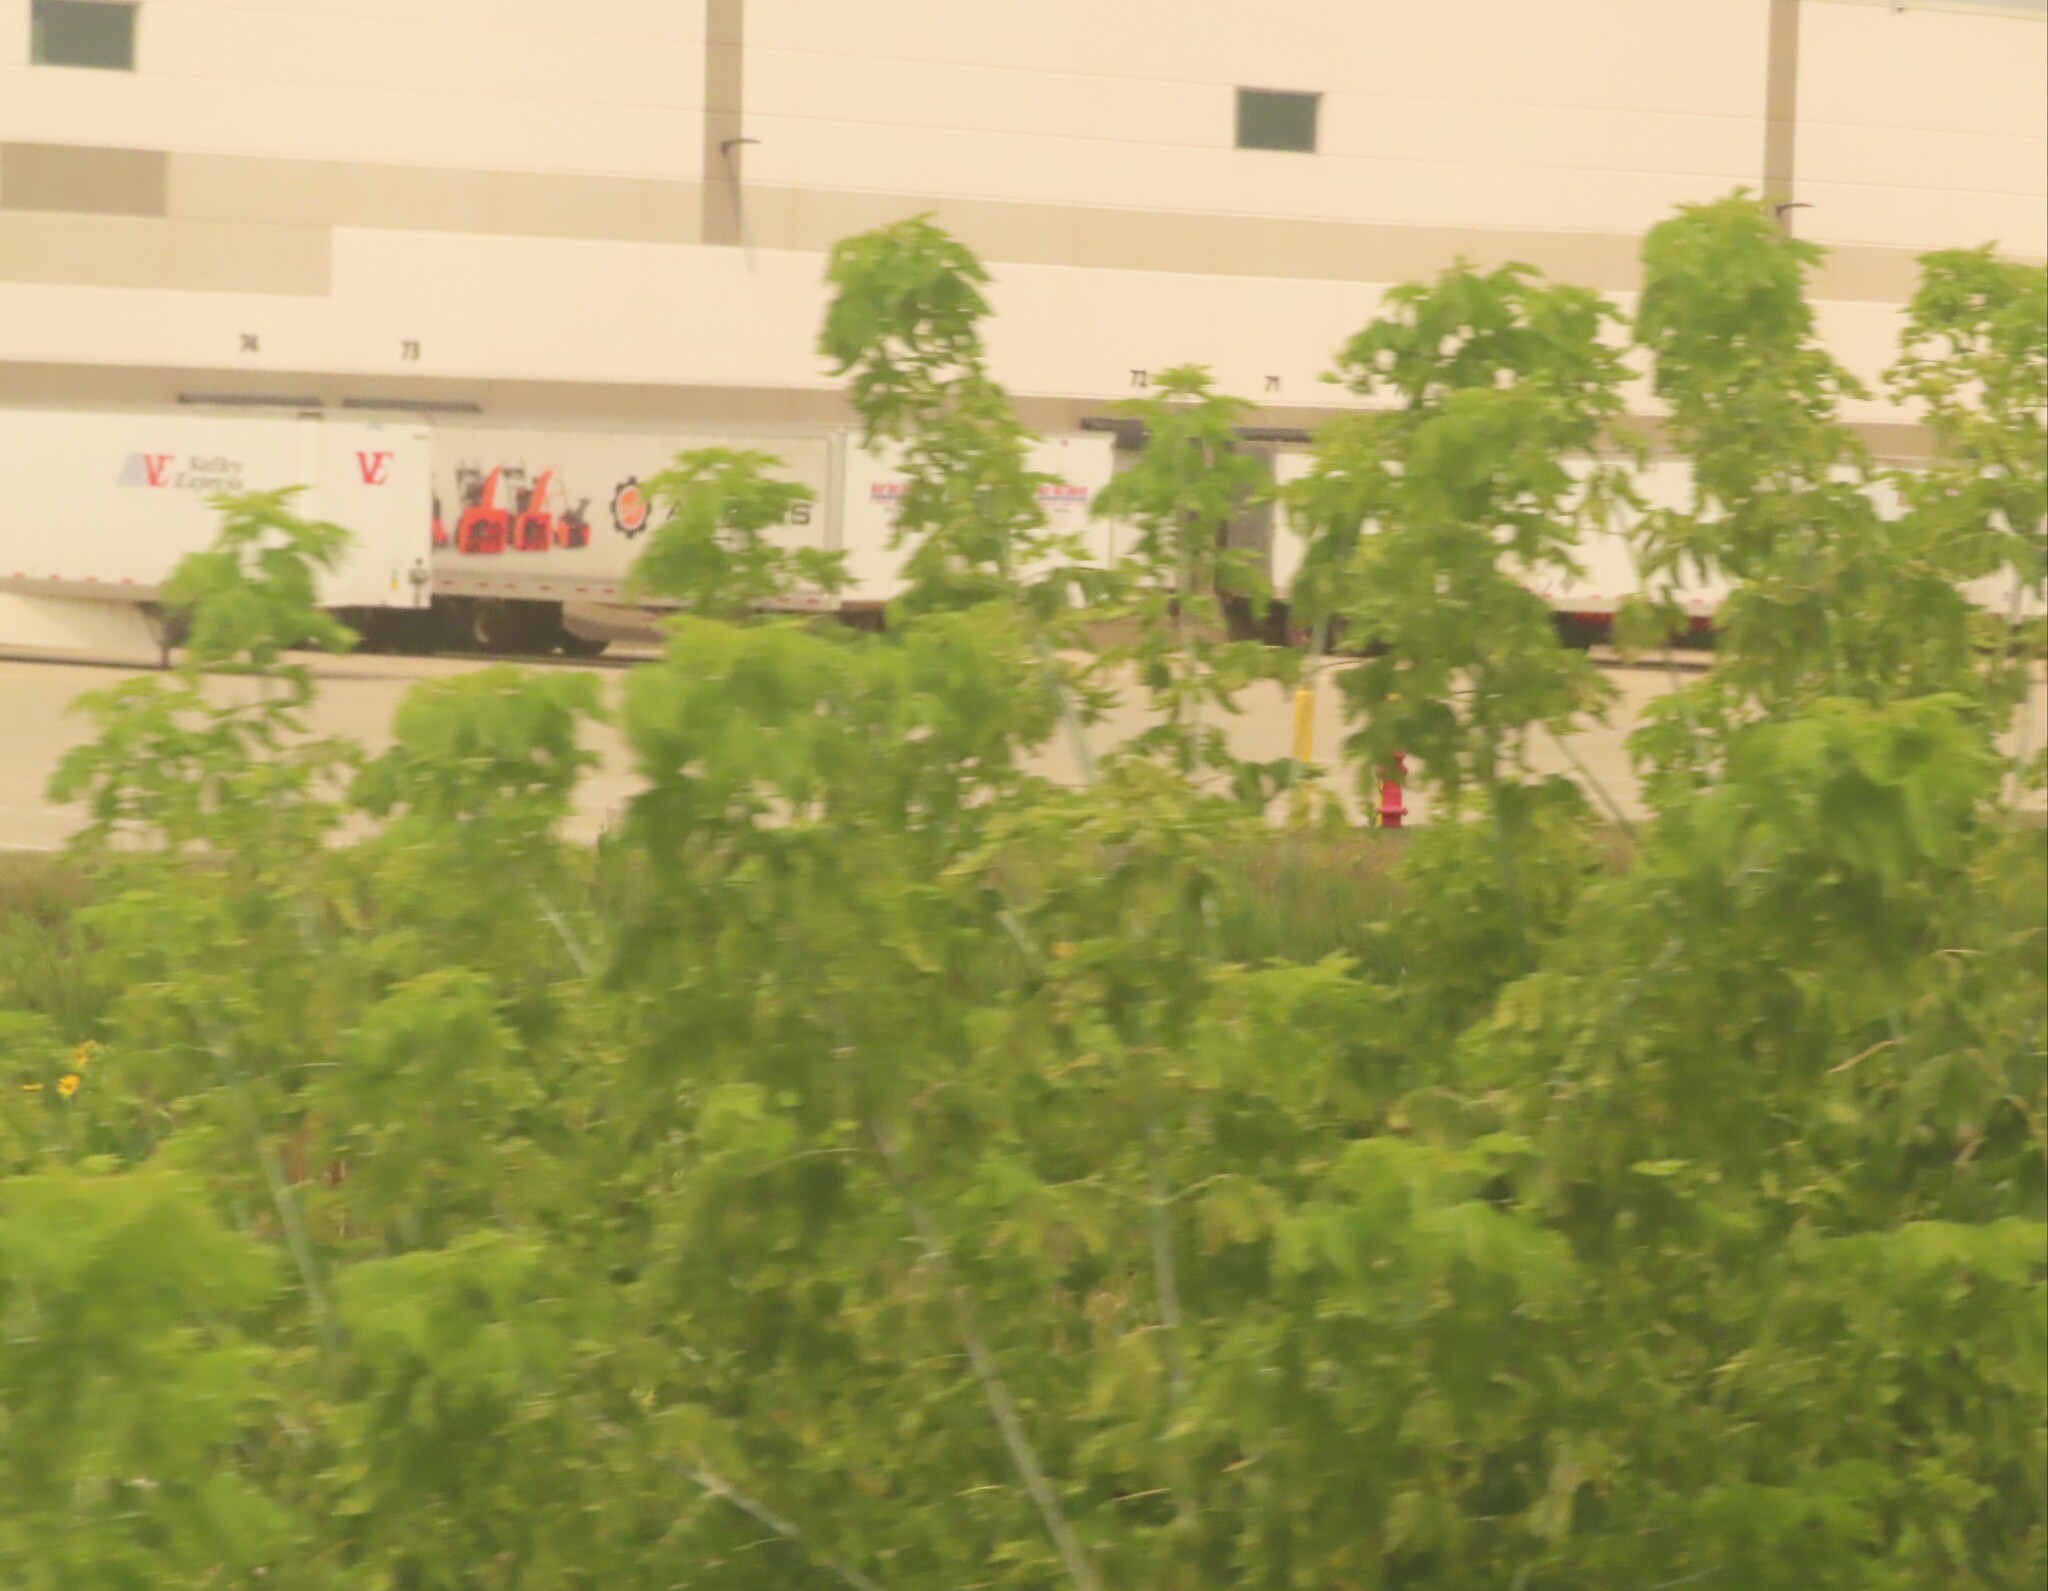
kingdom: Plantae
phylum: Tracheophyta
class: Magnoliopsida
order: Sapindales
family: Sapindaceae
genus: Acer
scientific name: Acer negundo
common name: Ashleaf maple
